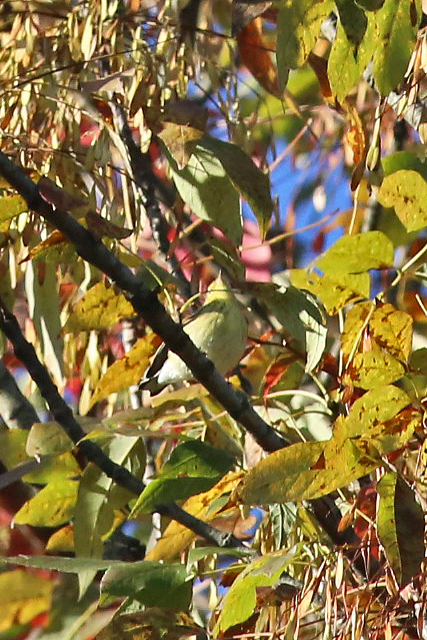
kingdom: Animalia
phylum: Chordata
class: Aves
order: Passeriformes
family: Parulidae
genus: Setophaga
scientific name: Setophaga striata
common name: Blackpoll warbler
